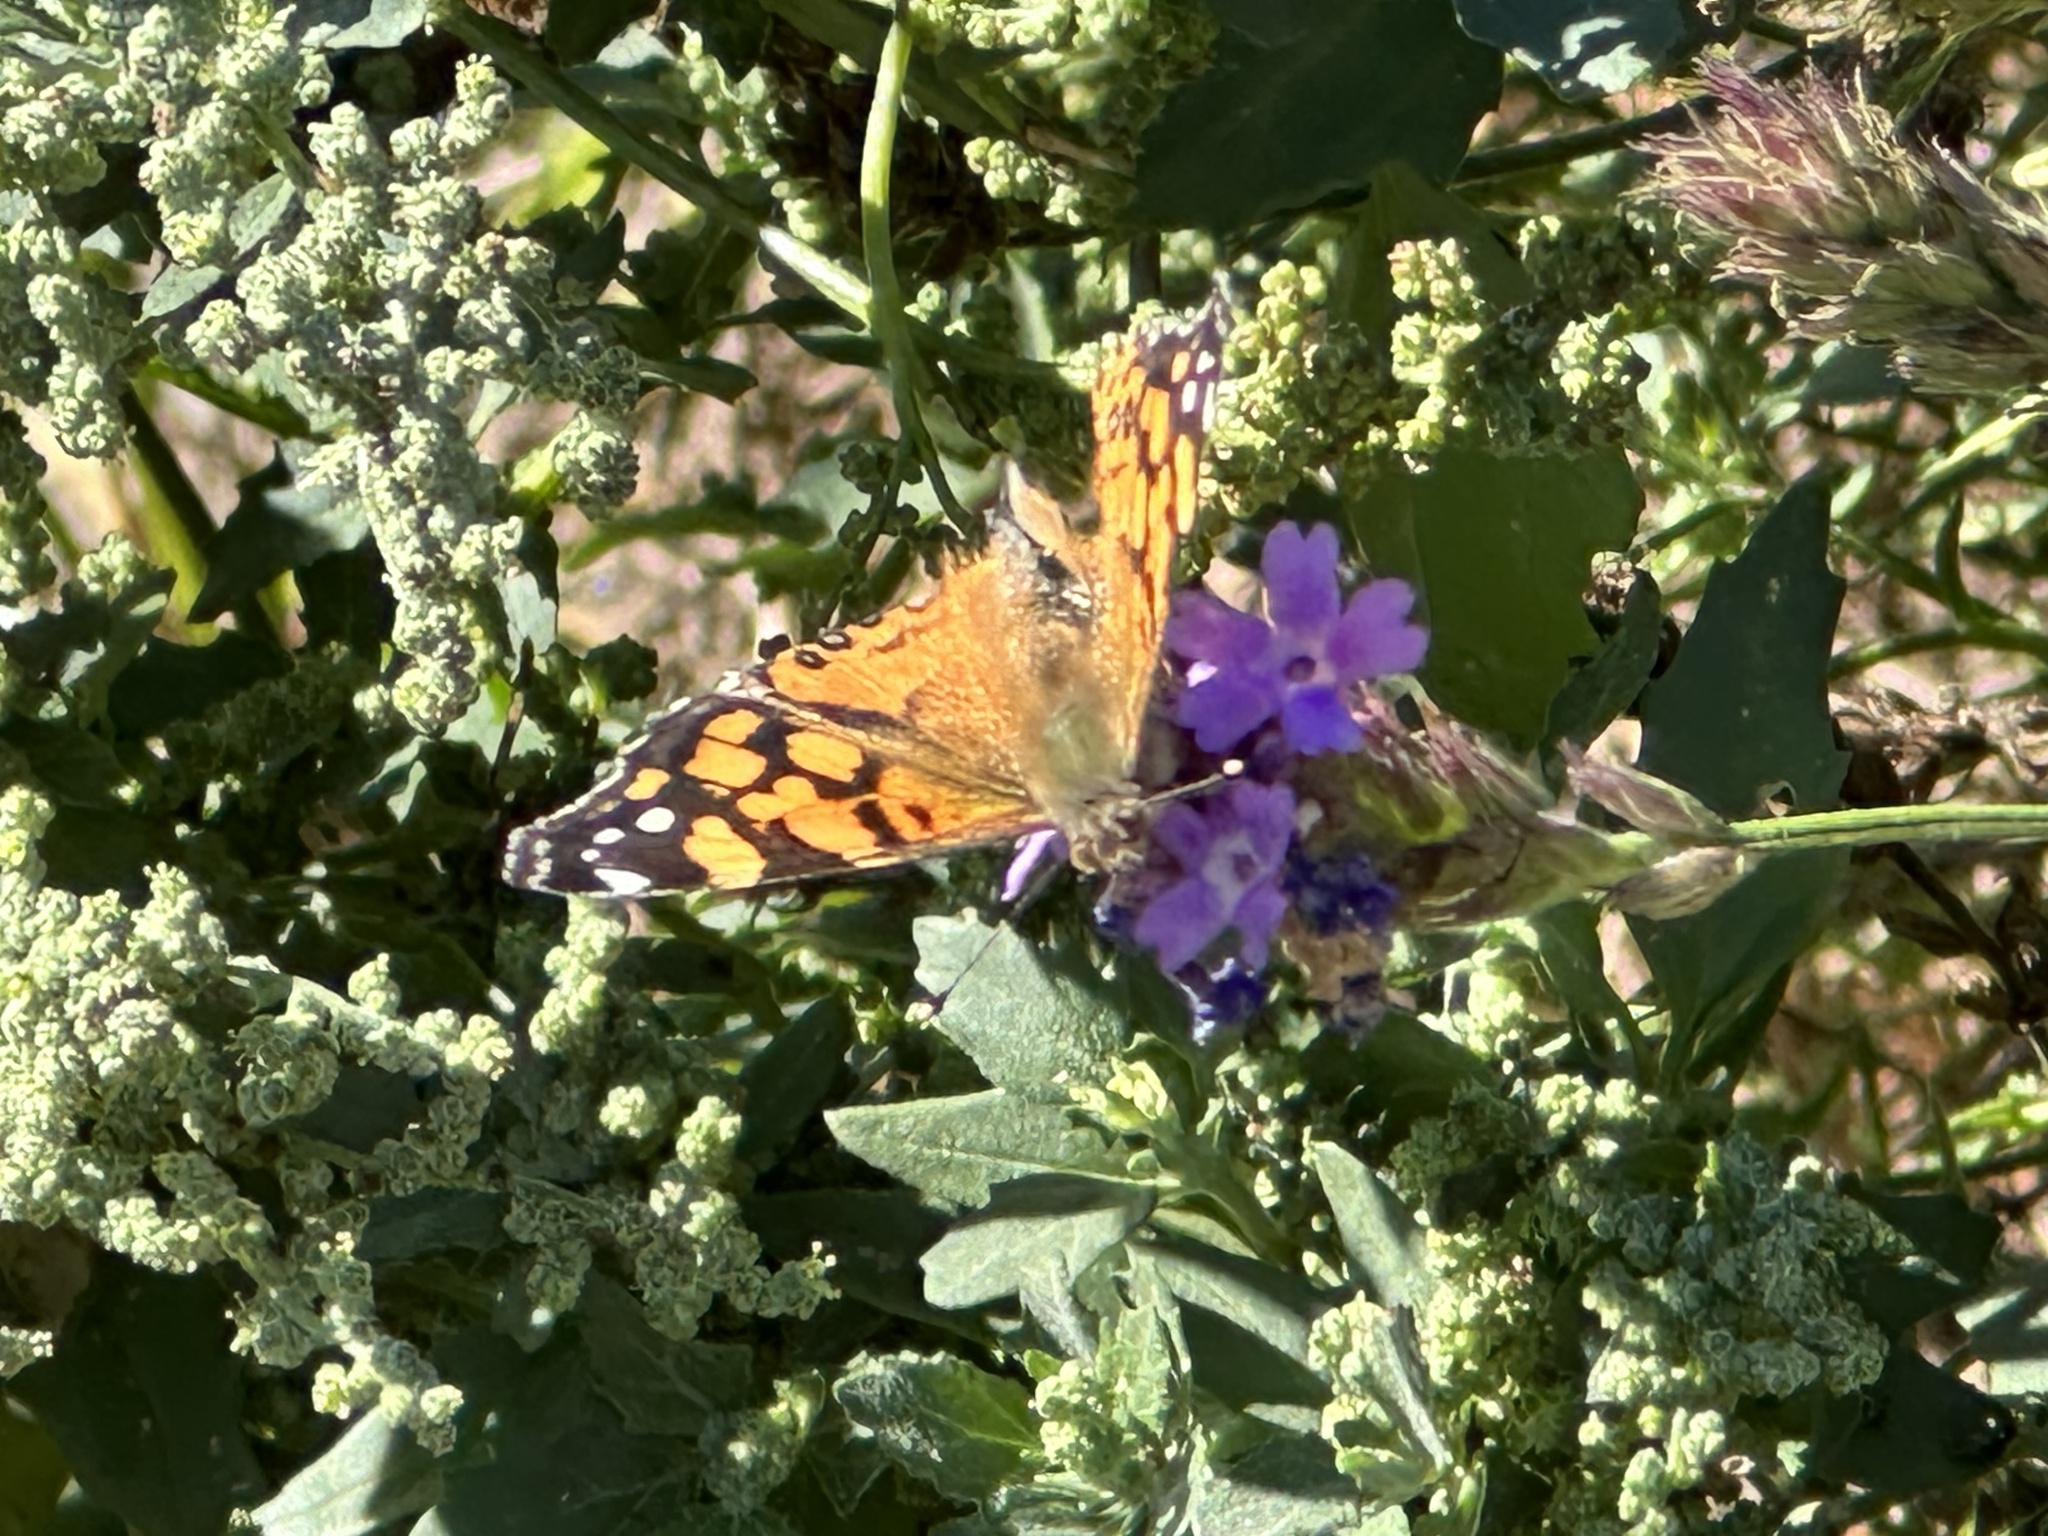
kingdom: Animalia
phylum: Arthropoda
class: Insecta
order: Lepidoptera
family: Nymphalidae
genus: Vanessa
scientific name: Vanessa annabella
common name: West coast lady
